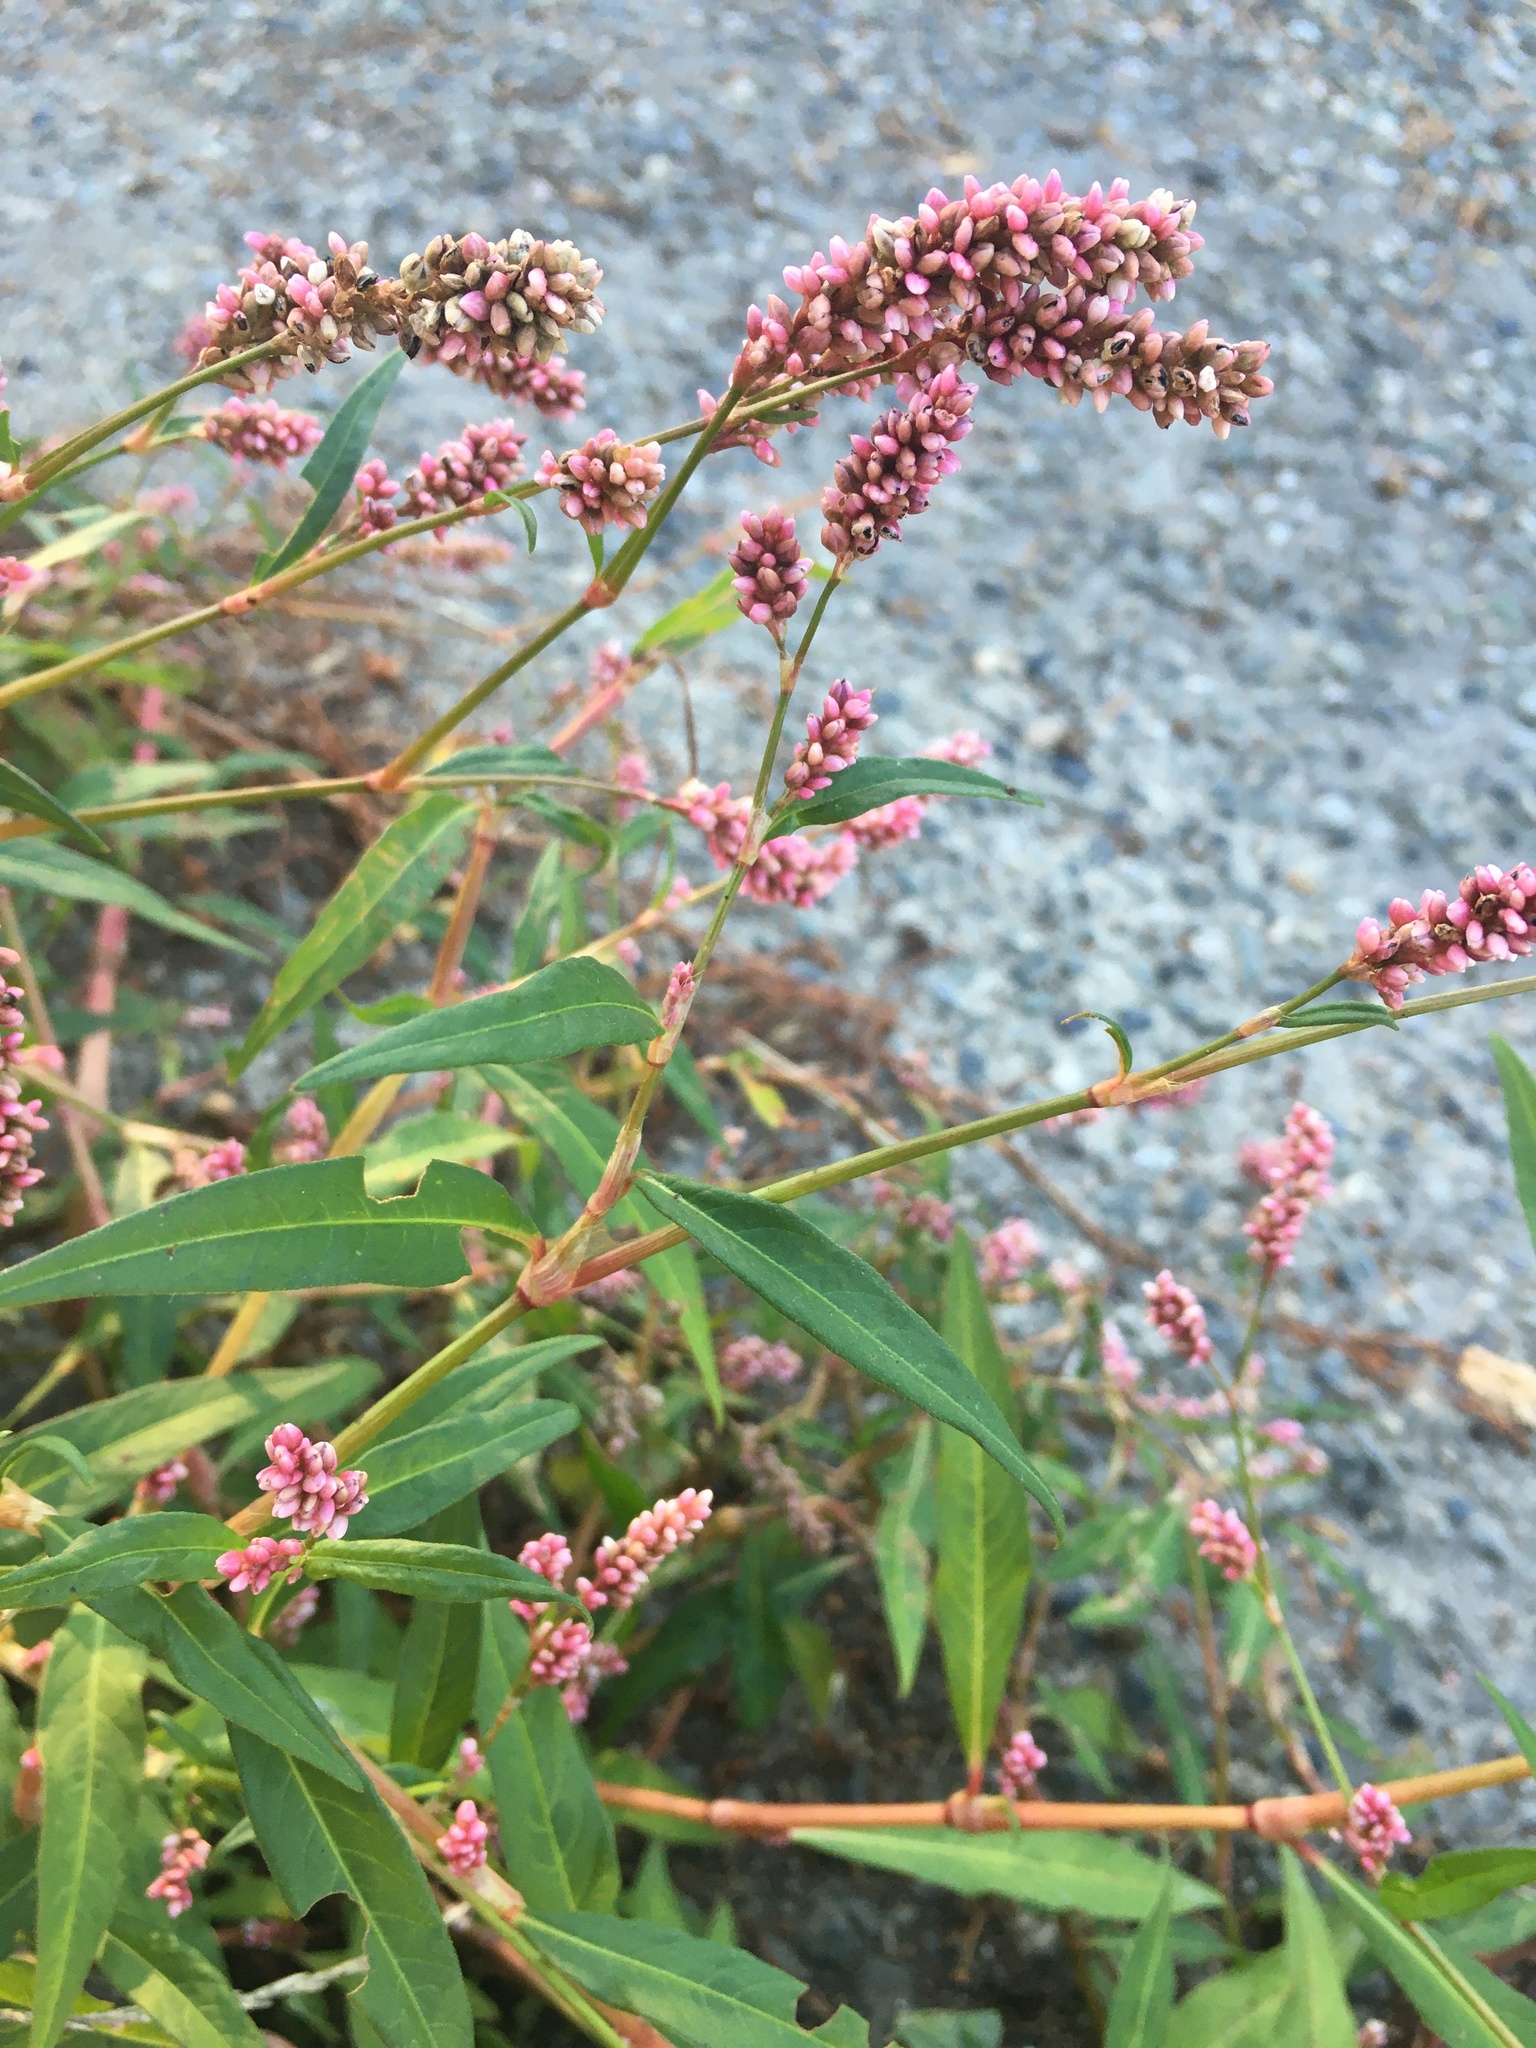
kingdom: Plantae
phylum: Tracheophyta
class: Magnoliopsida
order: Caryophyllales
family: Polygonaceae
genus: Persicaria
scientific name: Persicaria maculosa
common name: Redshank
